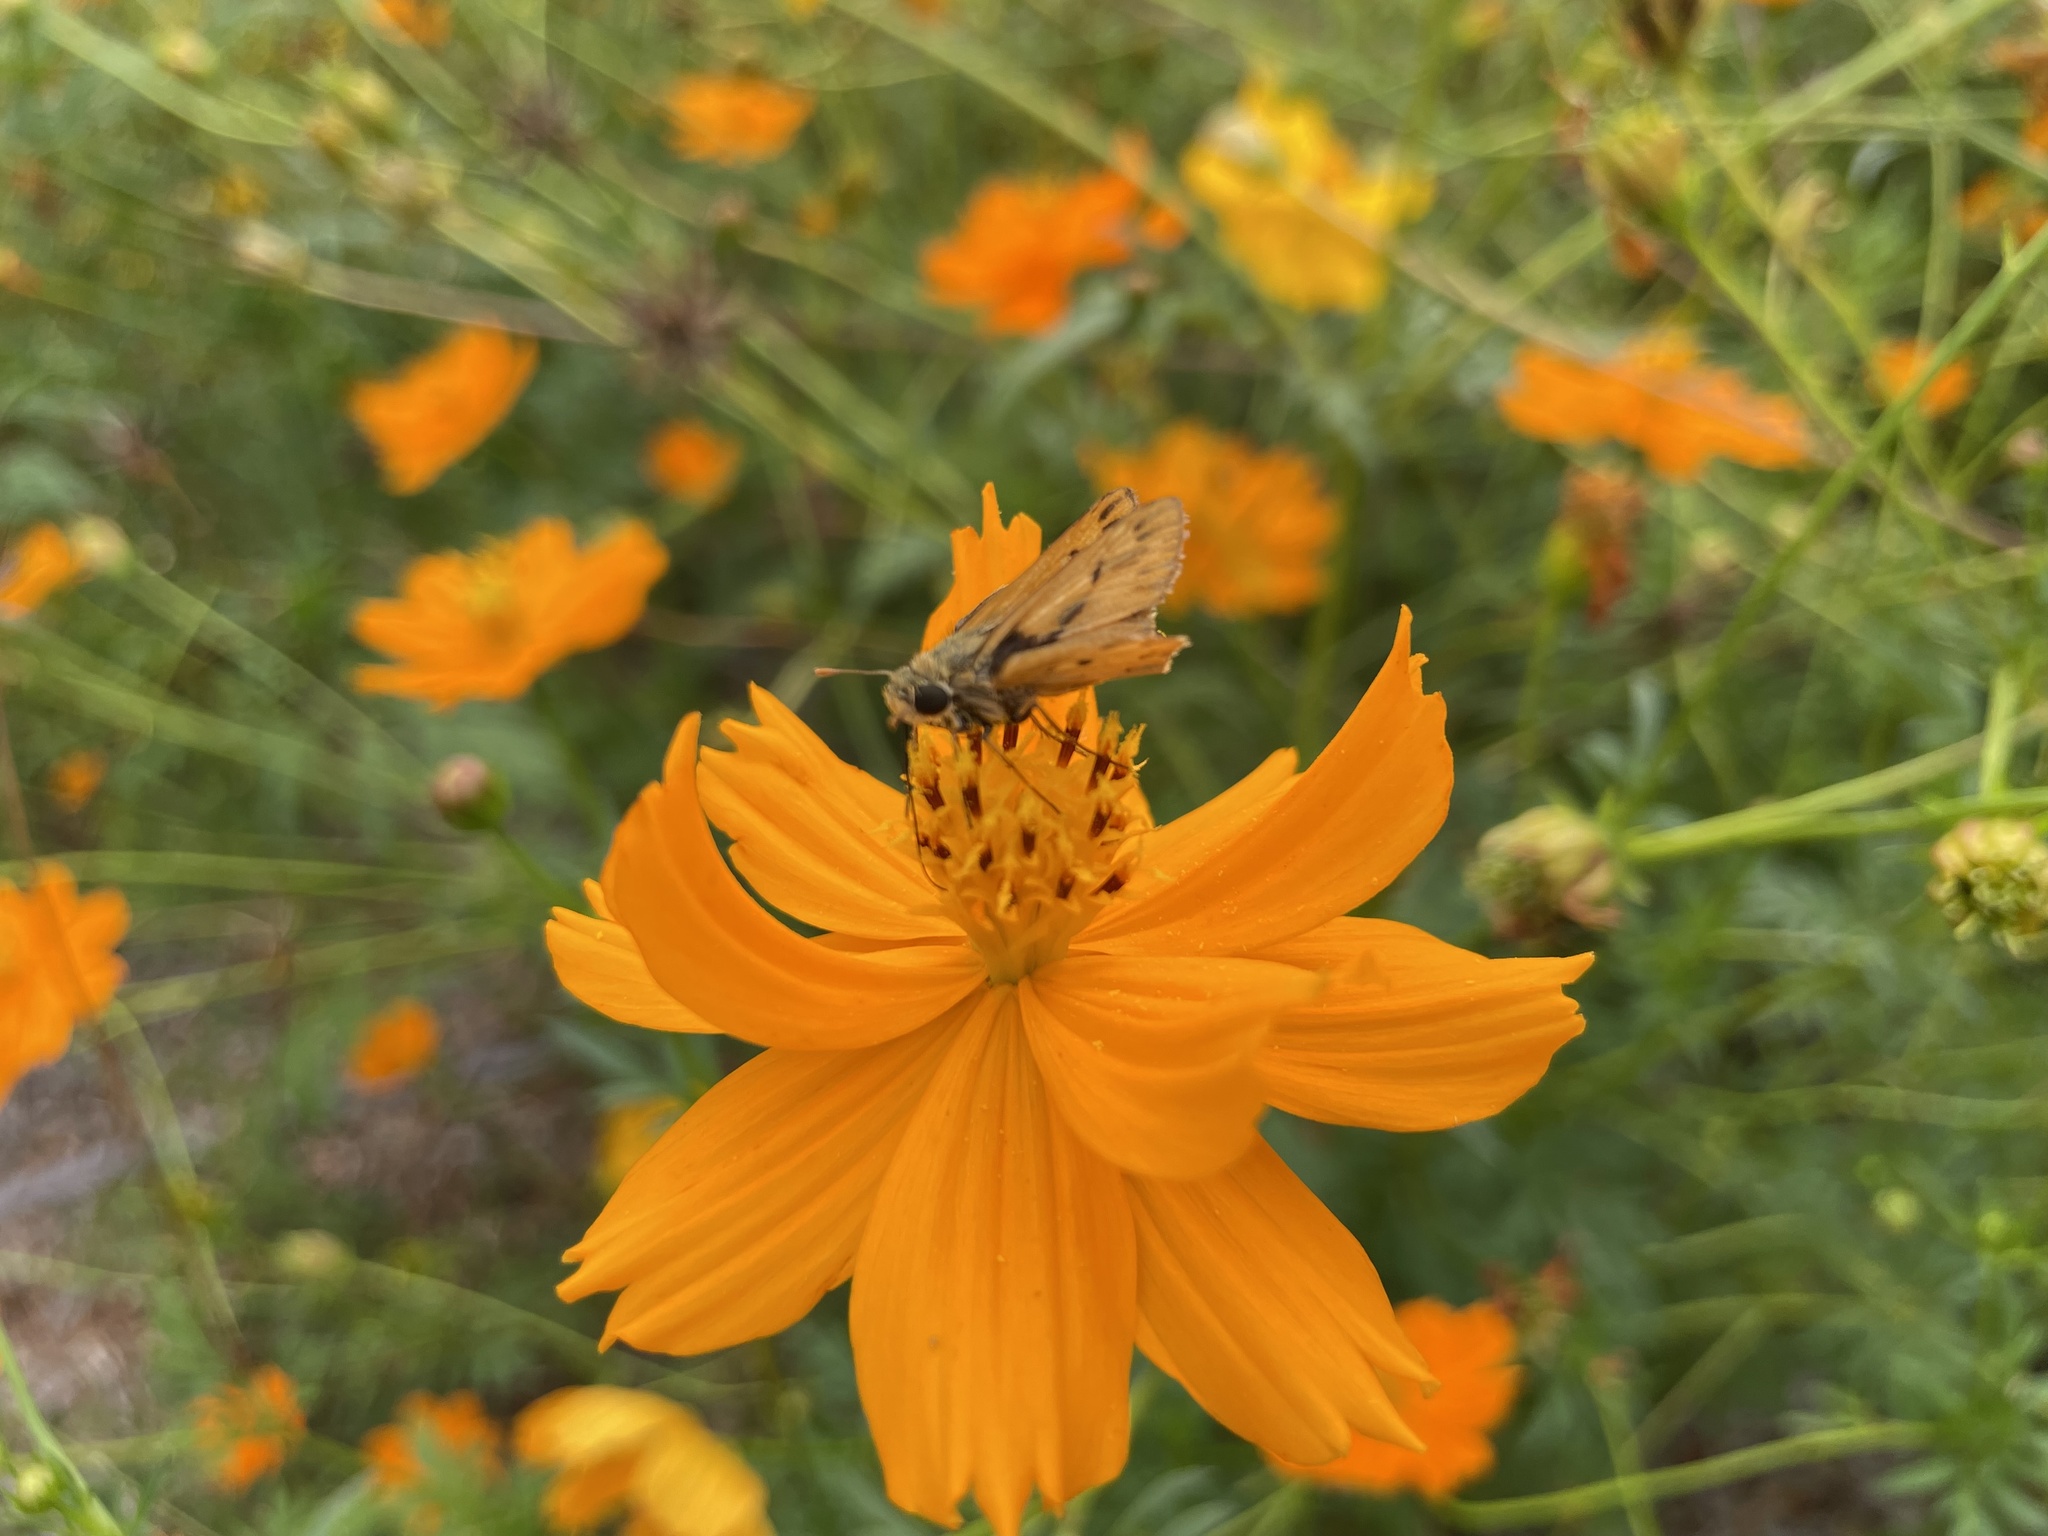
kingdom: Animalia
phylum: Arthropoda
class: Insecta
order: Lepidoptera
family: Hesperiidae
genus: Hylephila
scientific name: Hylephila phyleus
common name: Fiery skipper
